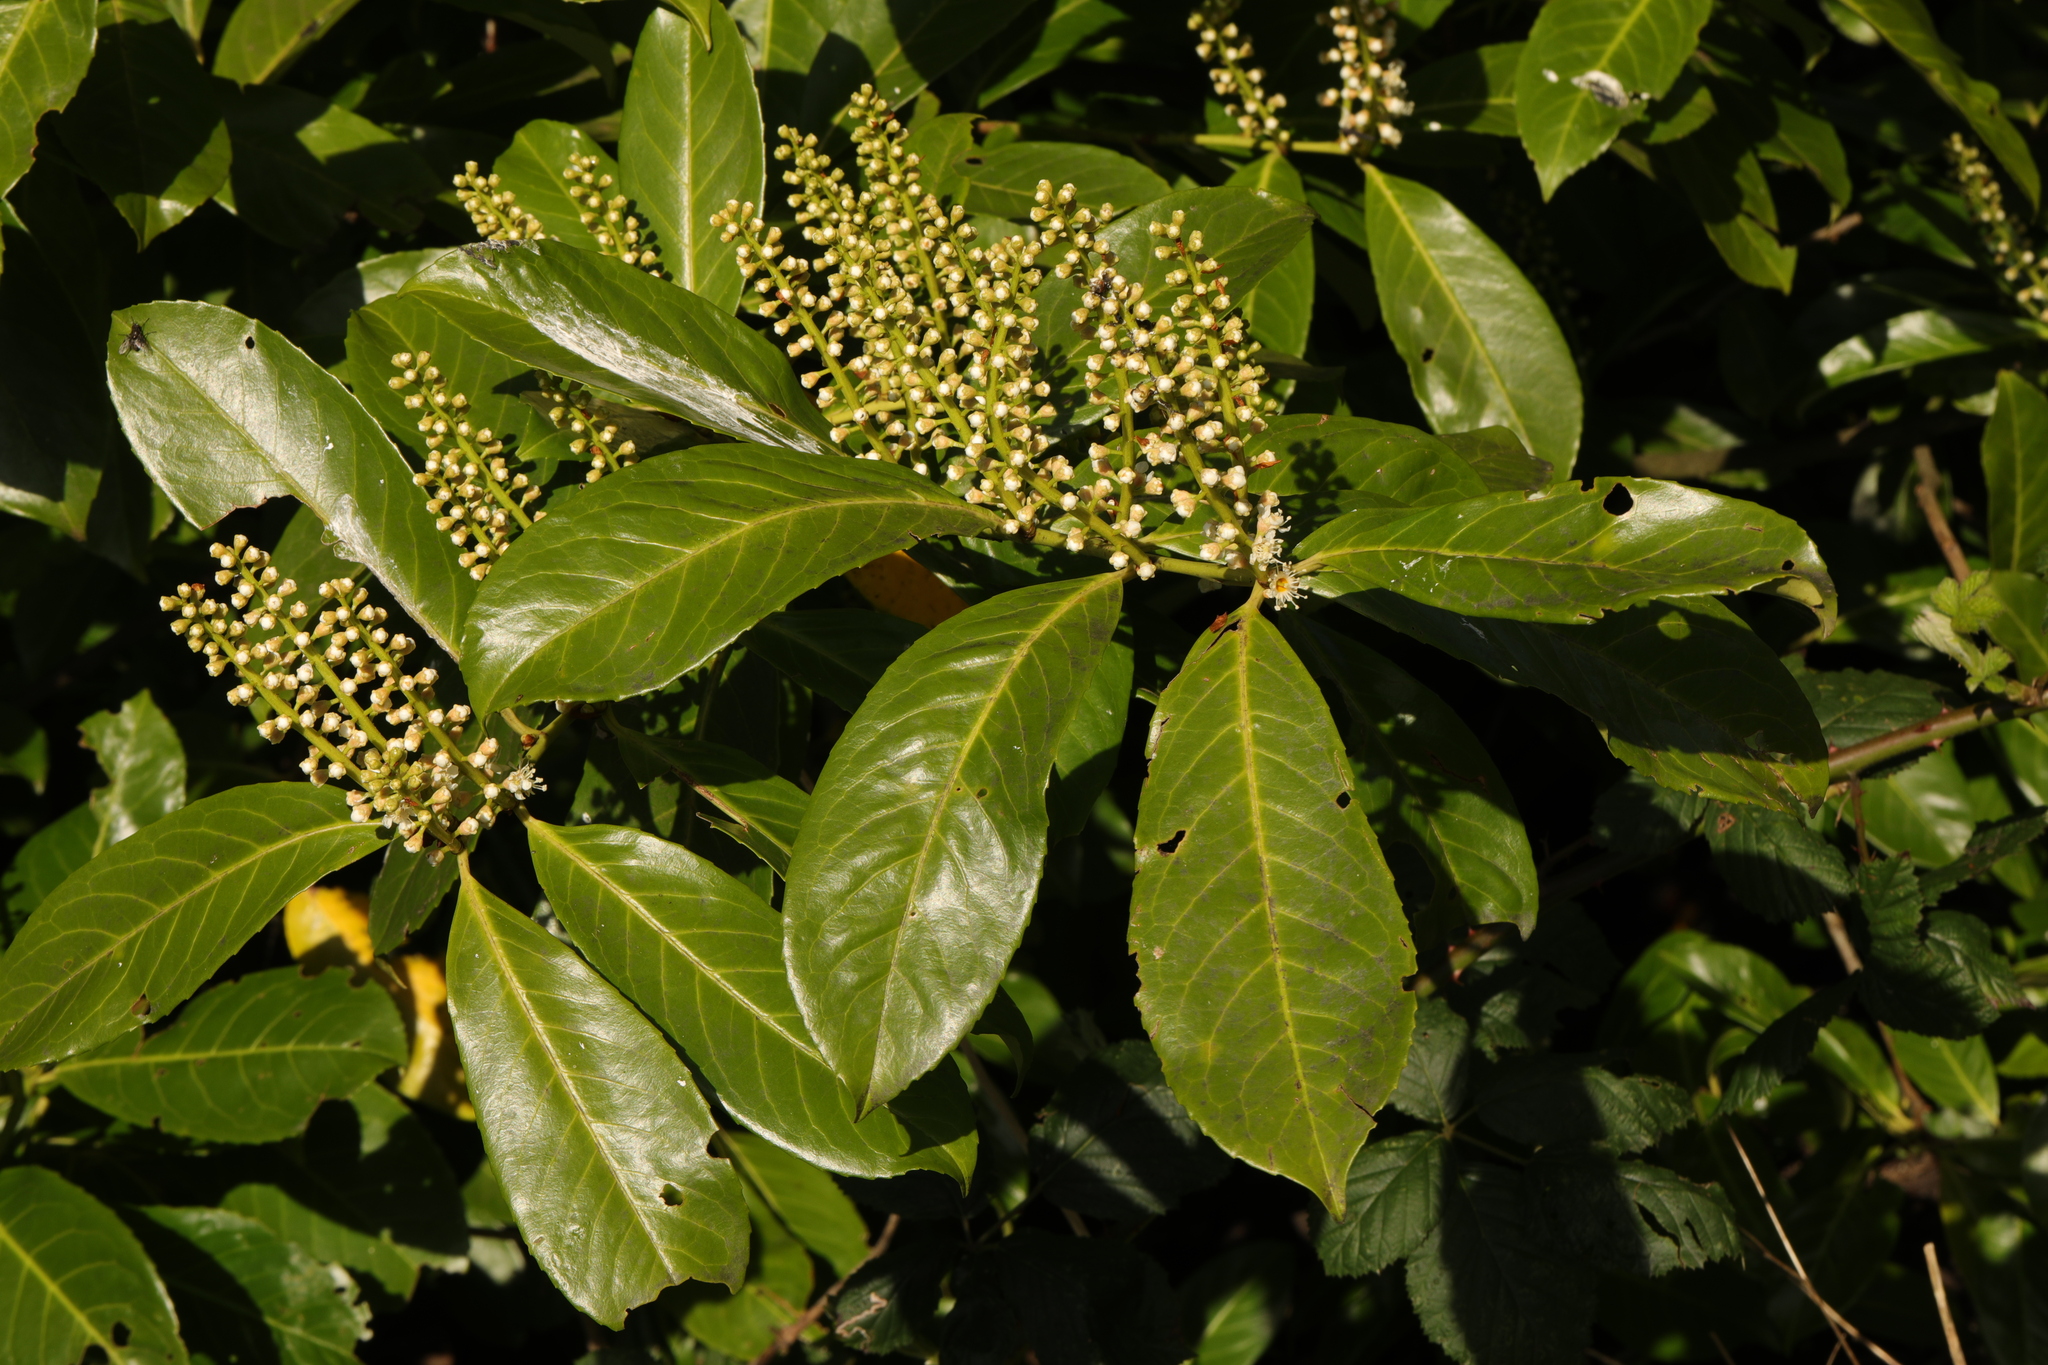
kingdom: Plantae
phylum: Tracheophyta
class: Magnoliopsida
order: Rosales
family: Rosaceae
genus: Prunus
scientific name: Prunus laurocerasus
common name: Cherry laurel
